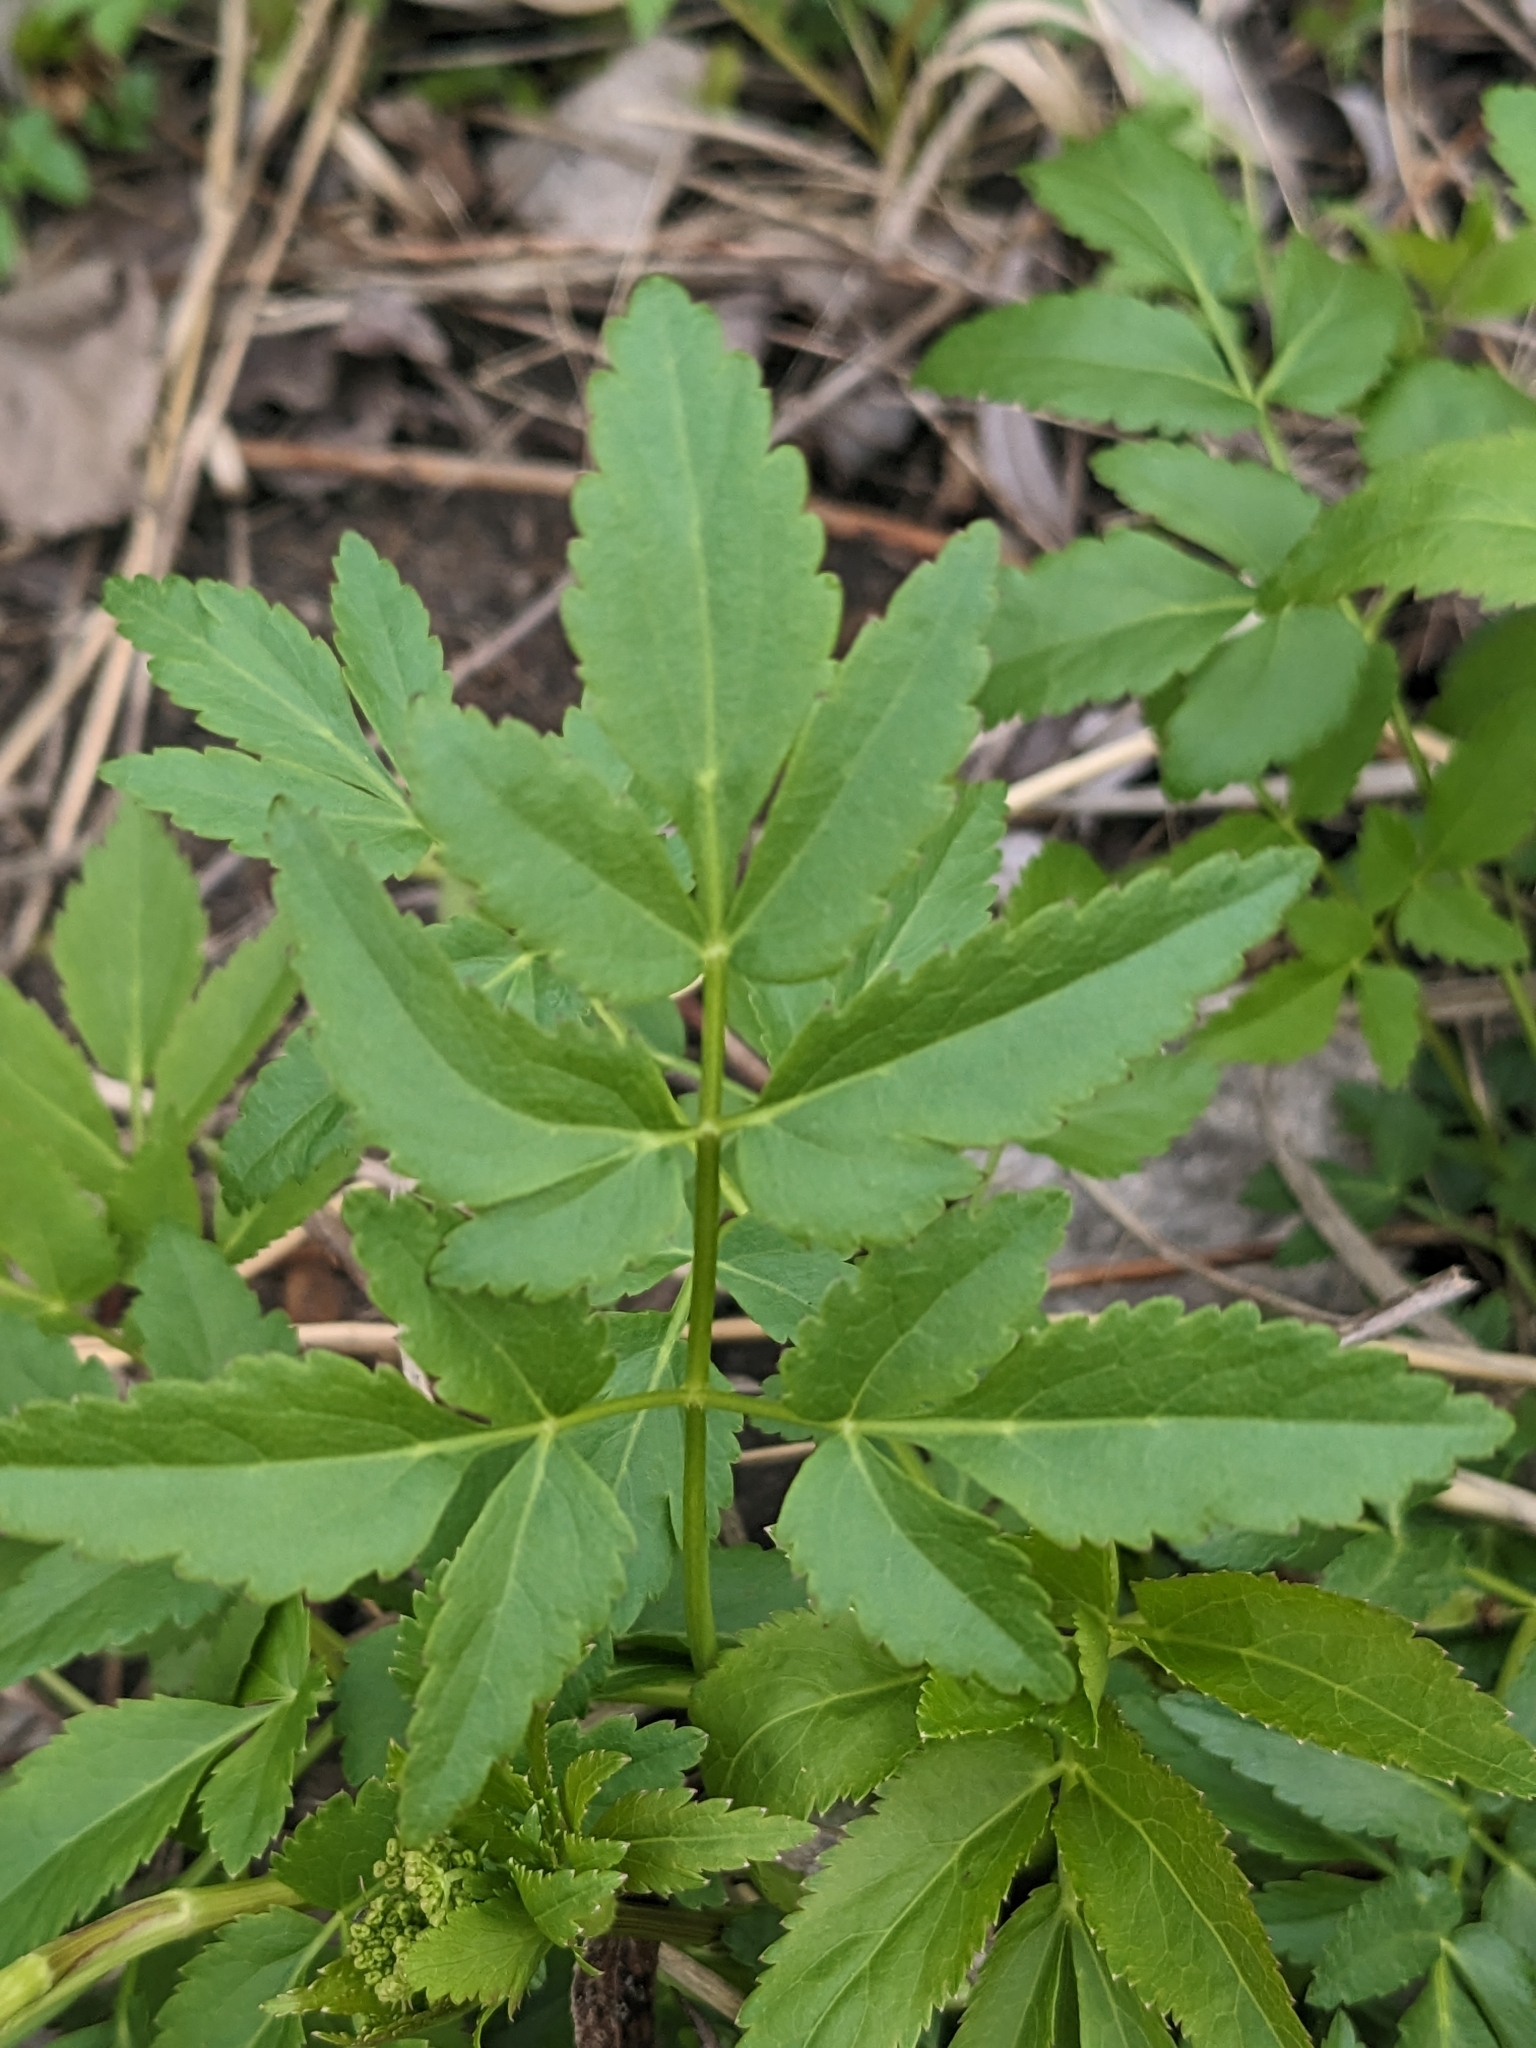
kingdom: Plantae
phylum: Tracheophyta
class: Magnoliopsida
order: Apiales
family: Apiaceae
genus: Zizia
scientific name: Zizia aurea
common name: Golden alexanders
